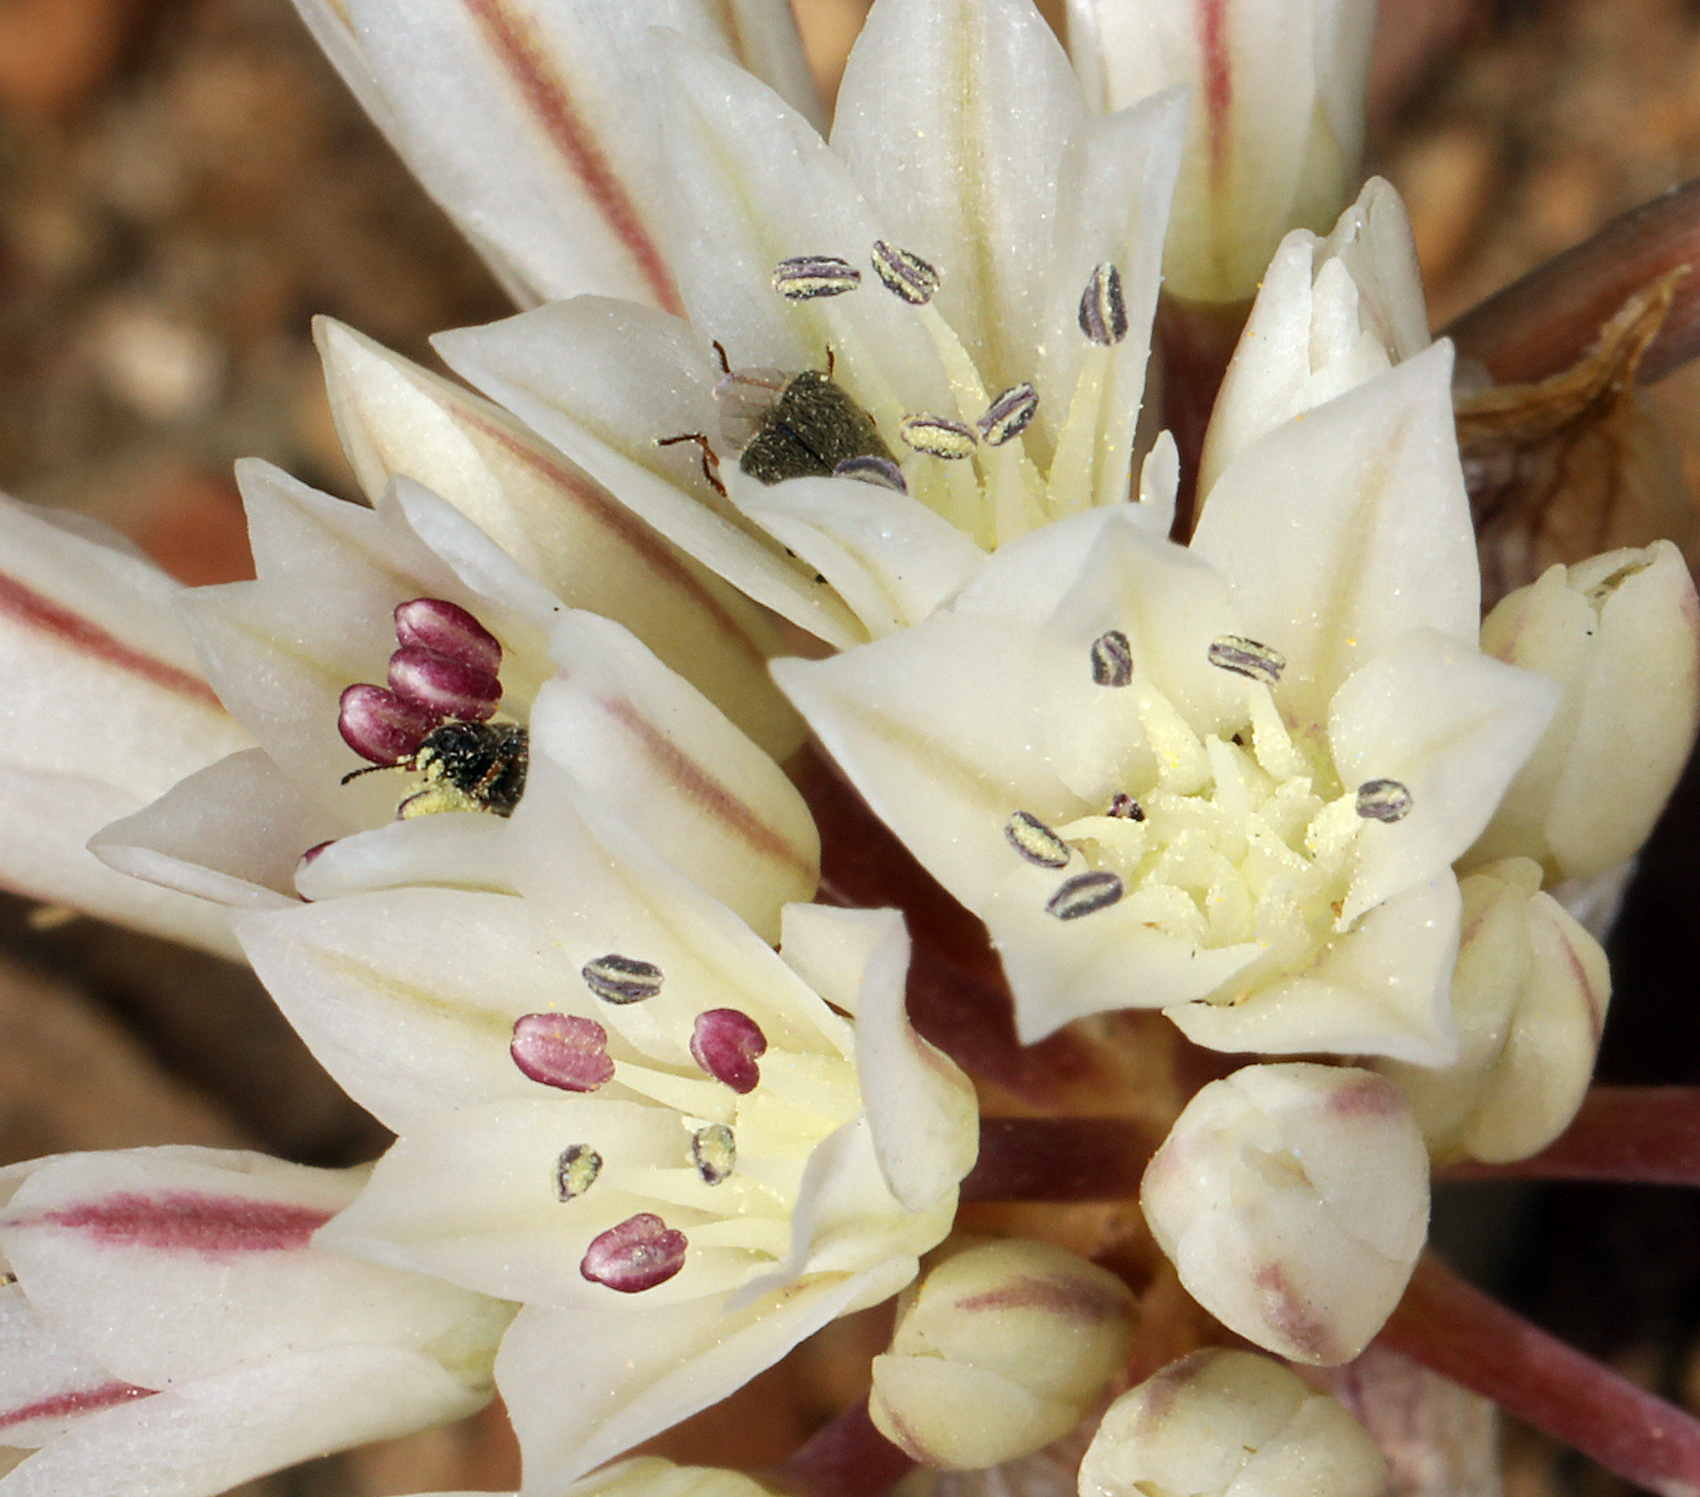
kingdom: Plantae
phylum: Tracheophyta
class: Liliopsida
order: Asparagales
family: Amaryllidaceae
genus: Allium
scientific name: Allium atrorubens
